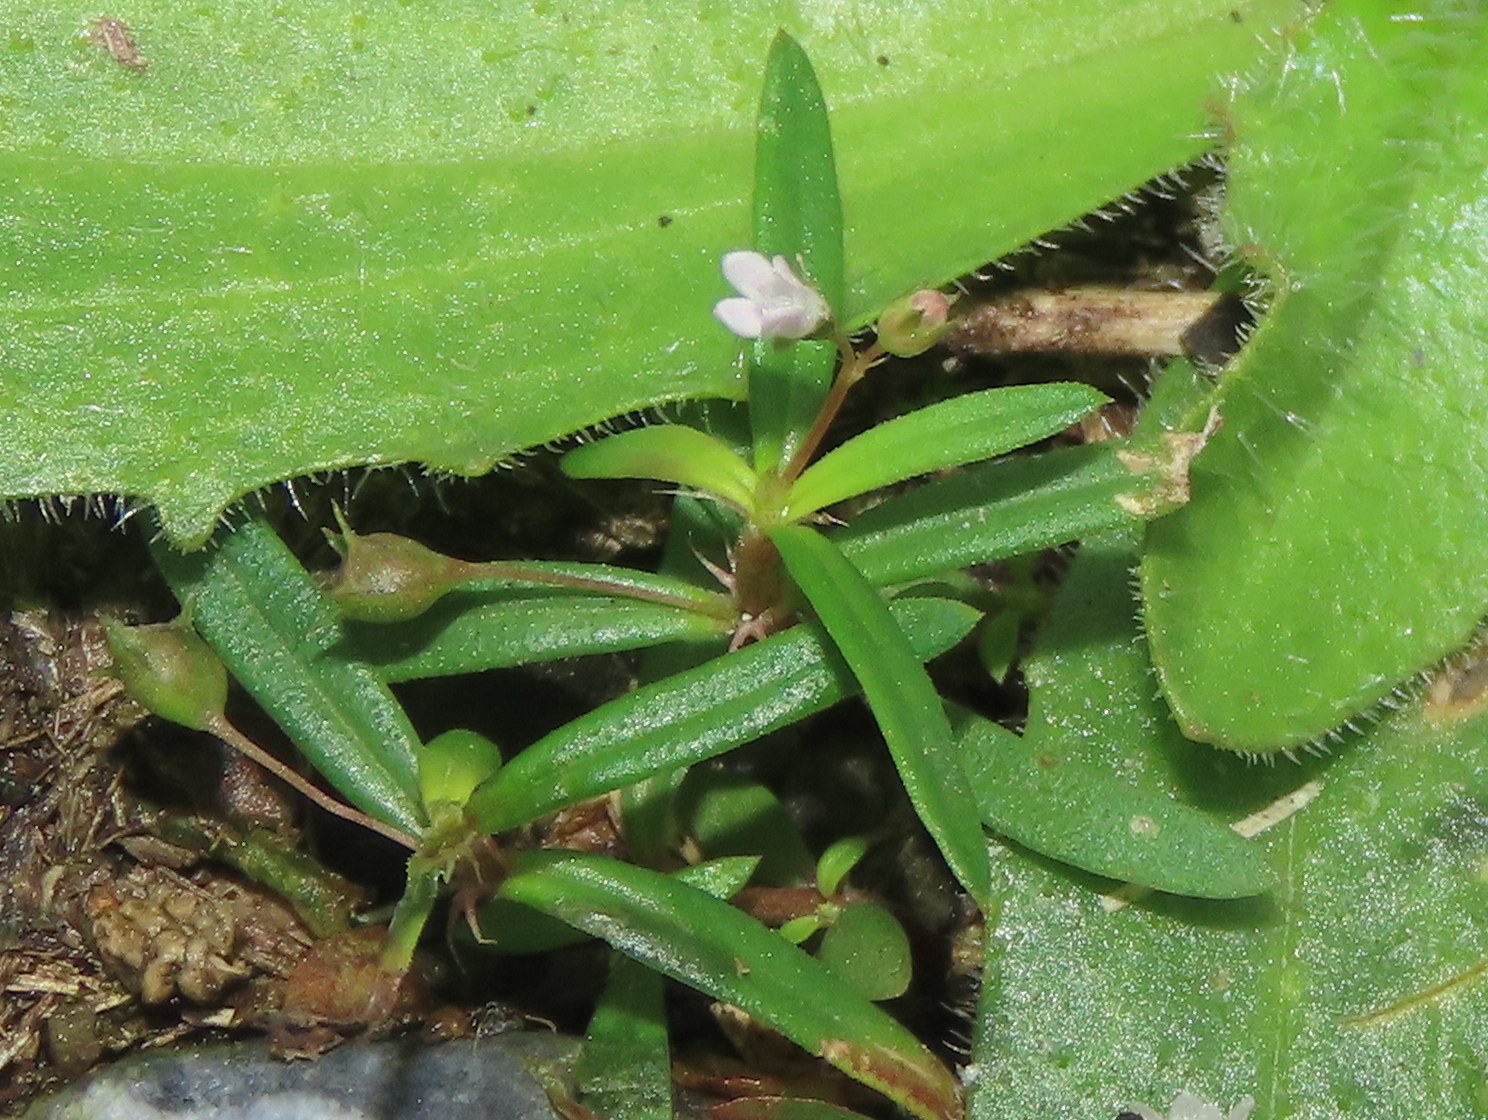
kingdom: Plantae
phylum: Tracheophyta
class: Magnoliopsida
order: Gentianales
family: Rubiaceae
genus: Oldenlandia
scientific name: Oldenlandia corymbosa
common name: Flat-top mille graines
